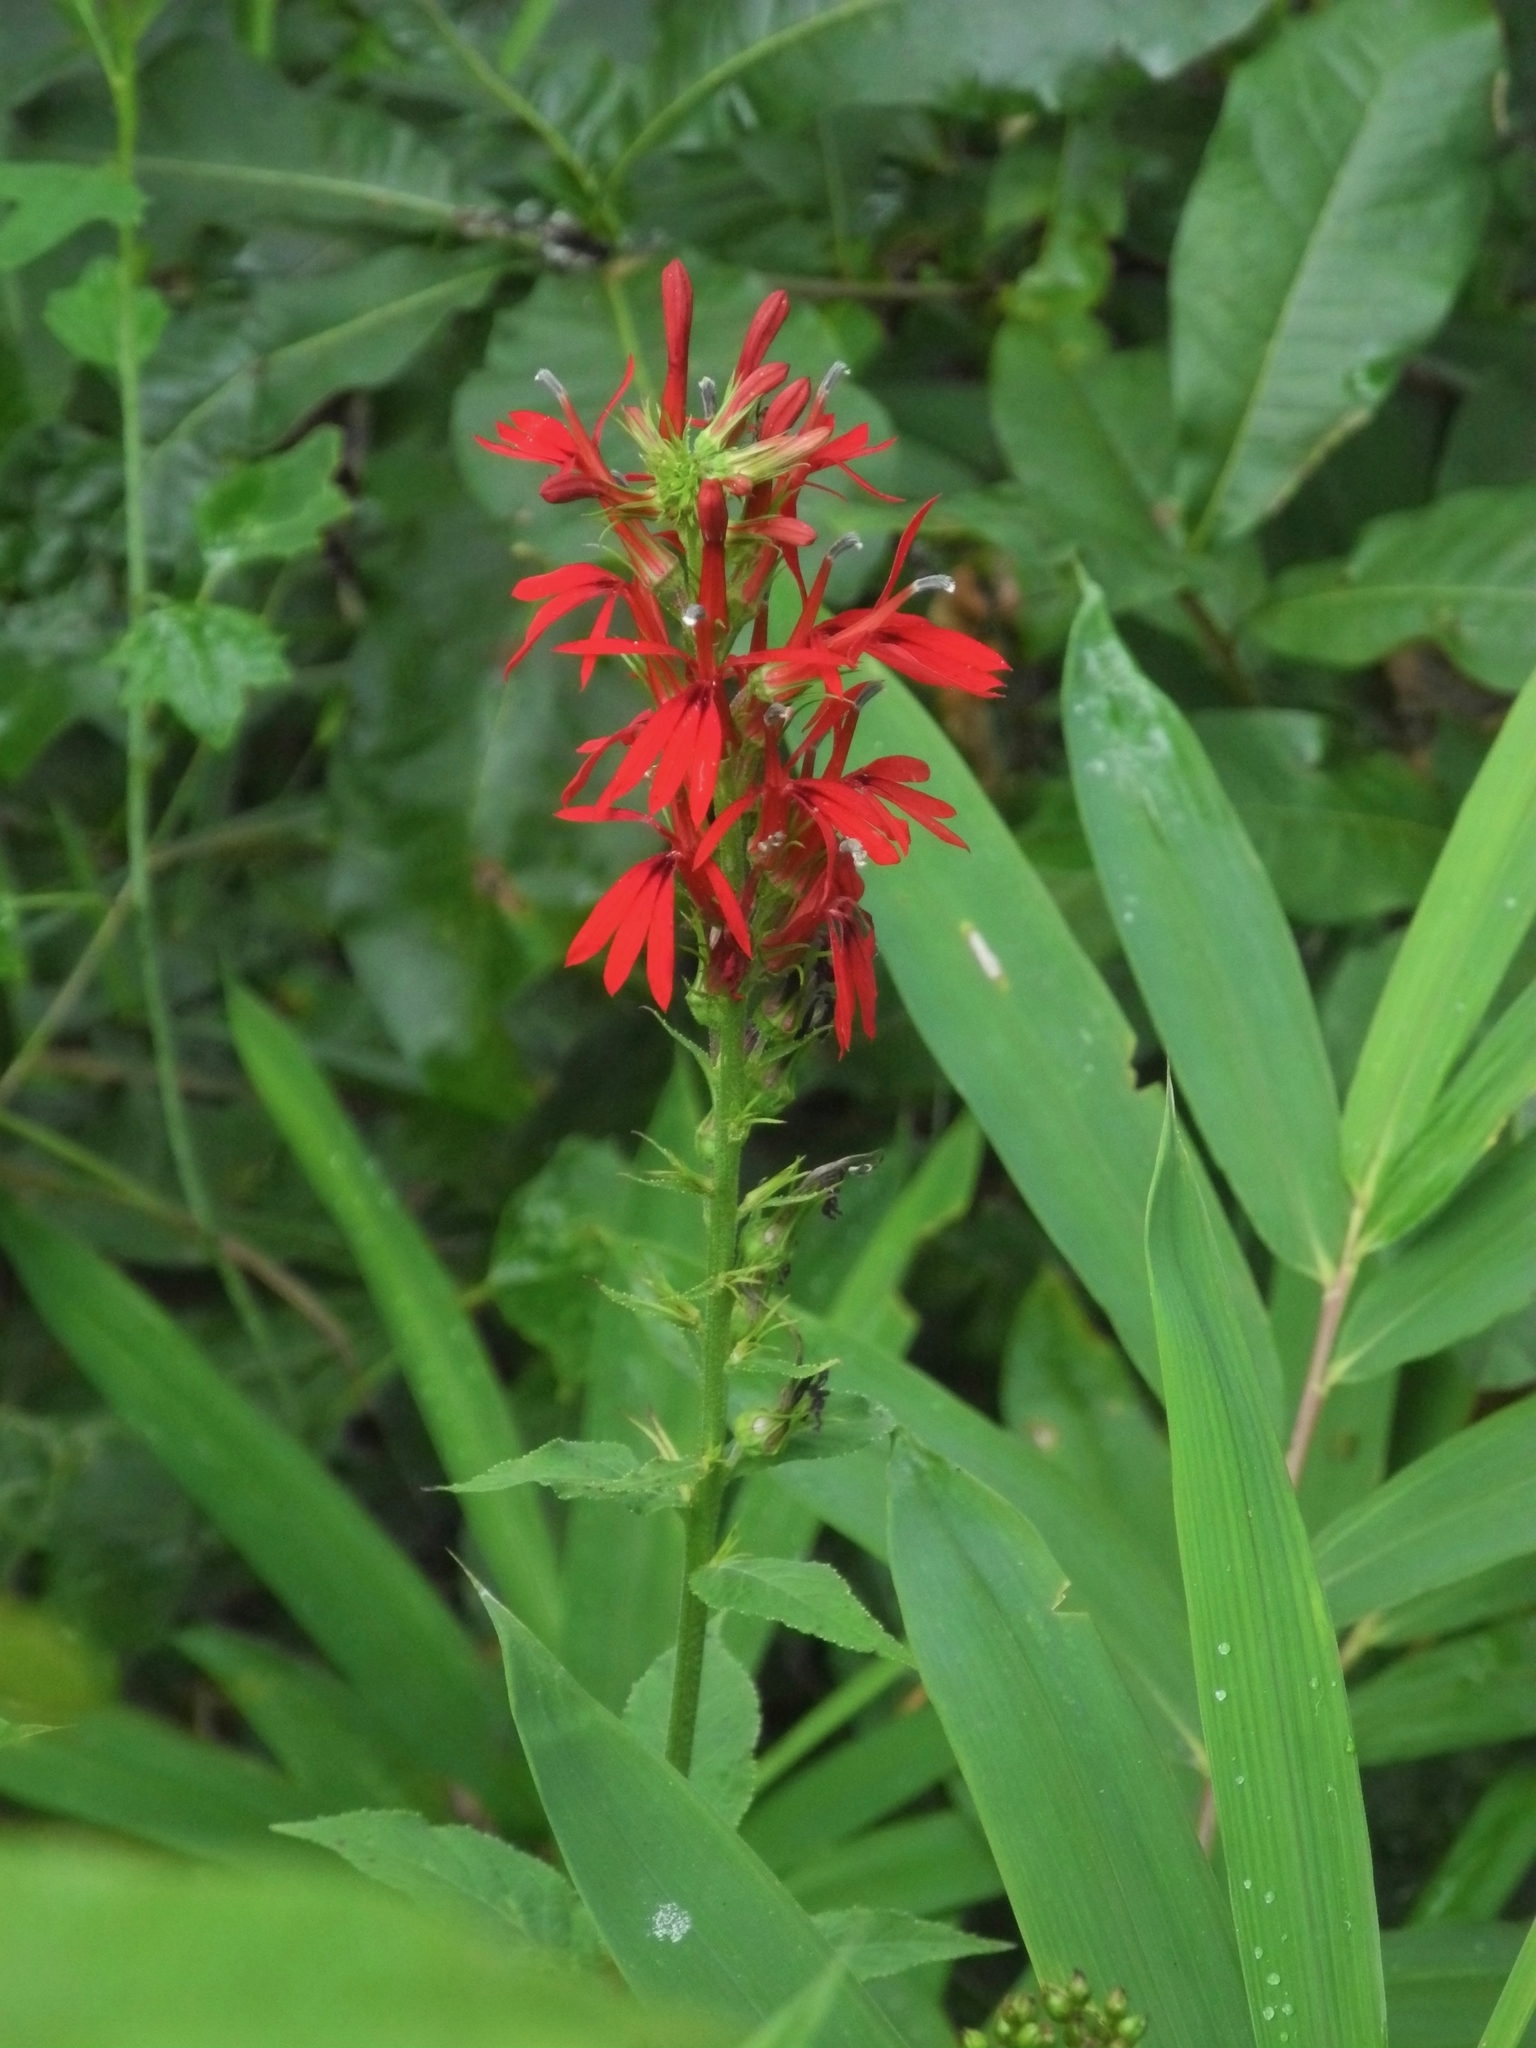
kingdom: Plantae
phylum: Tracheophyta
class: Magnoliopsida
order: Asterales
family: Campanulaceae
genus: Lobelia
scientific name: Lobelia cardinalis
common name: Cardinal flower
